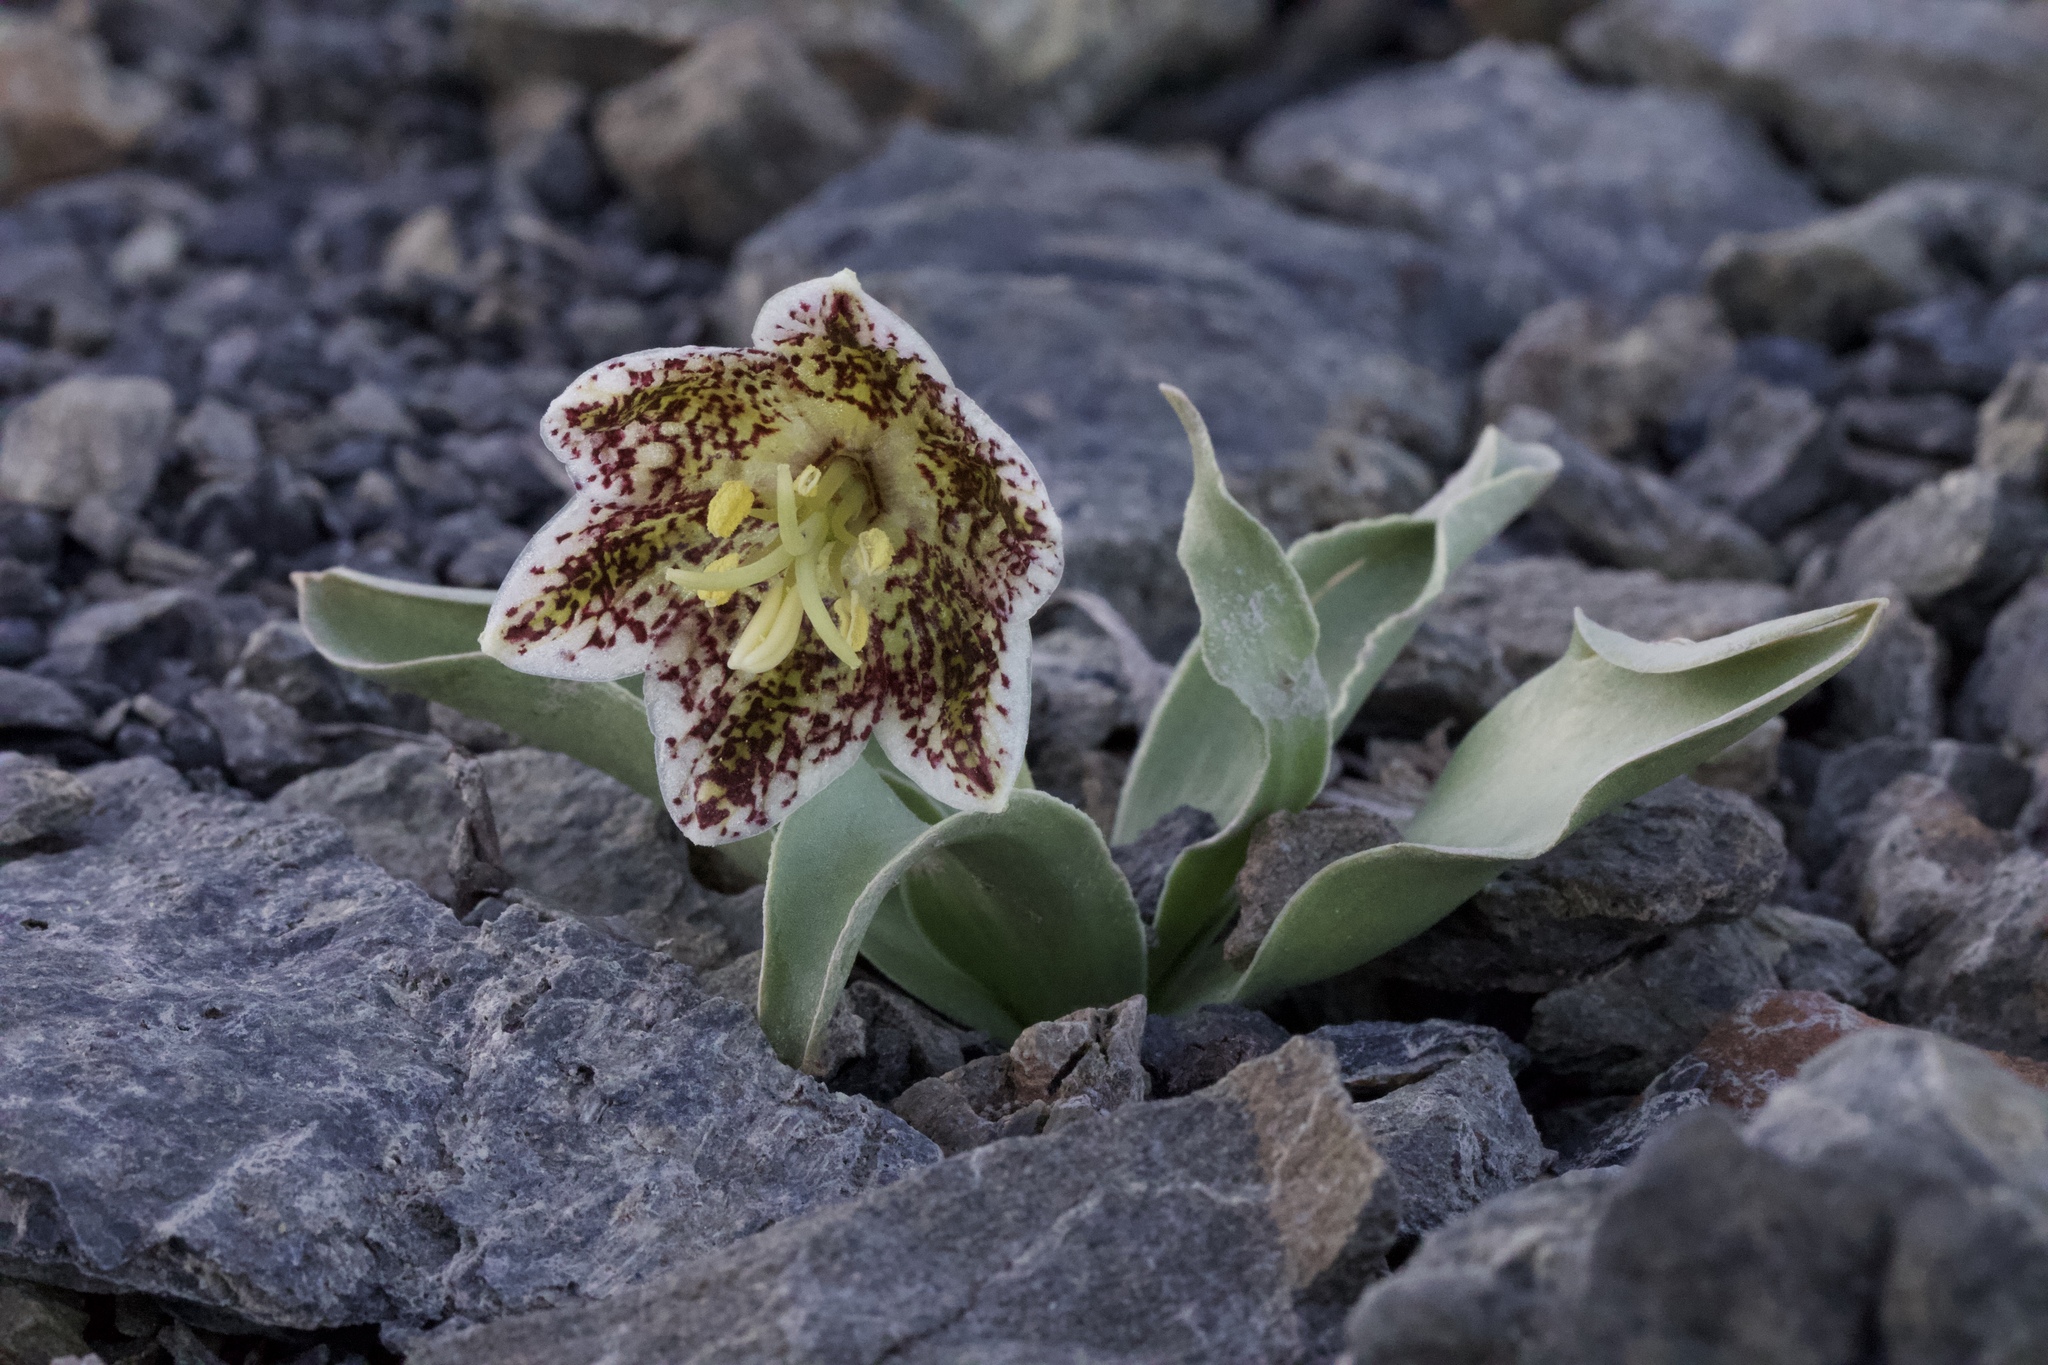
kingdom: Plantae
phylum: Tracheophyta
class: Liliopsida
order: Liliales
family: Liliaceae
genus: Fritillaria
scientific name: Fritillaria purdyi
